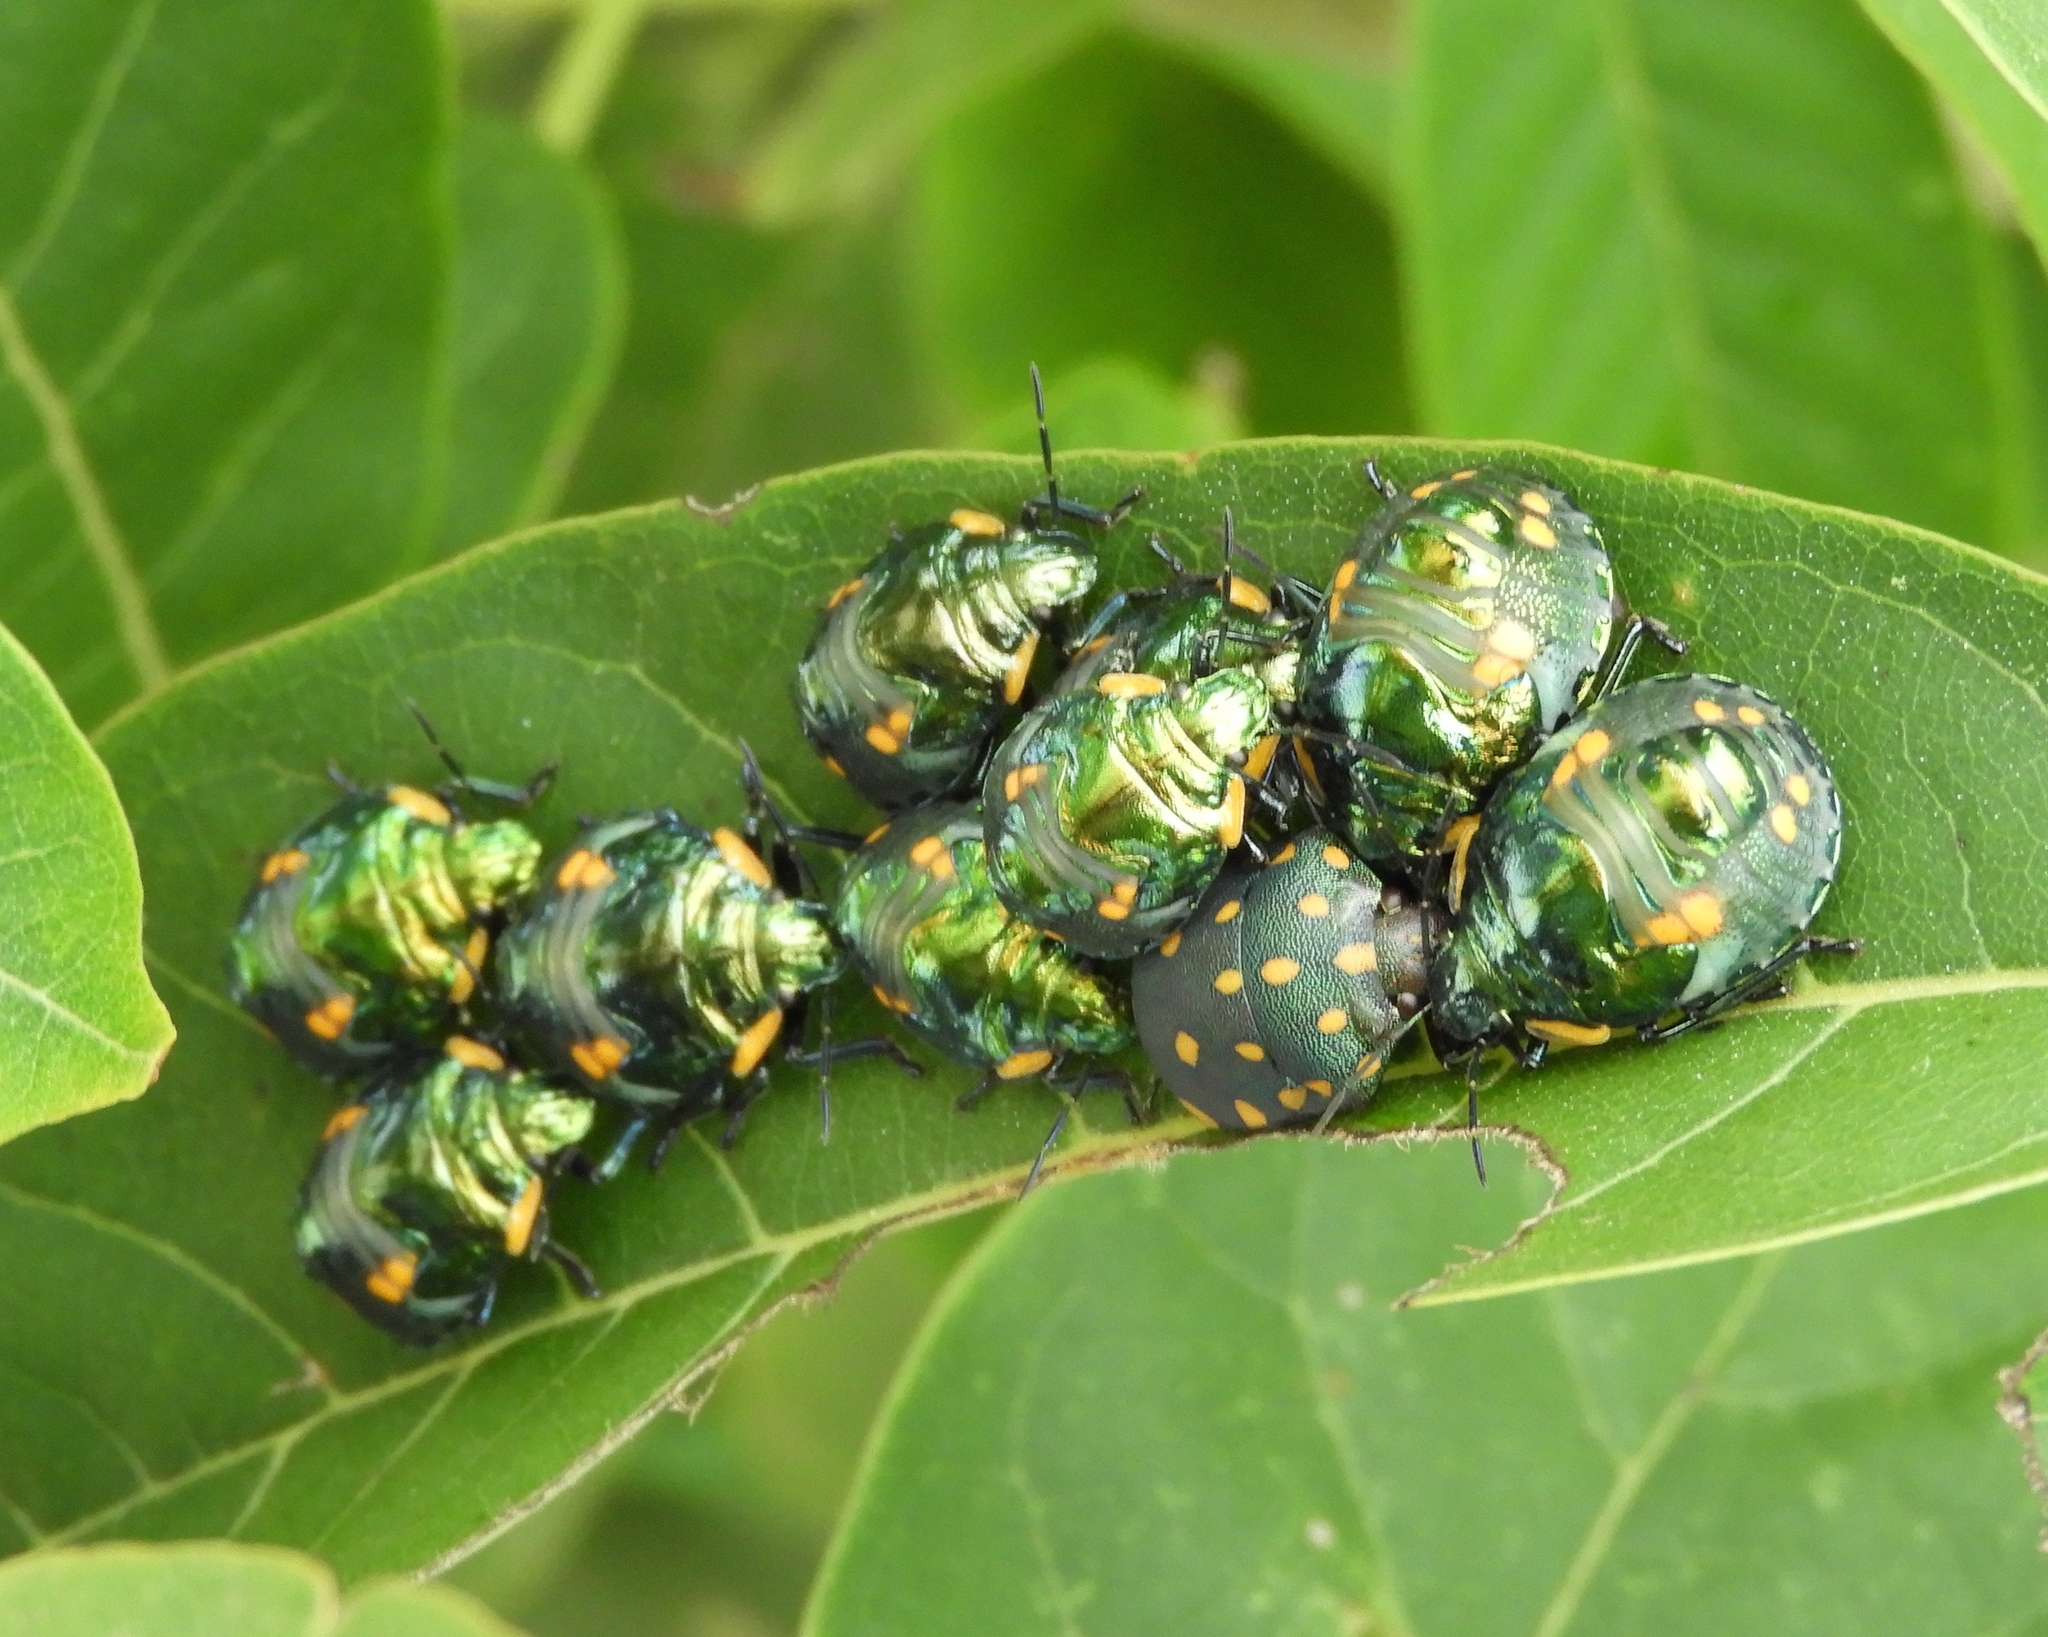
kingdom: Animalia
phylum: Arthropoda
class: Insecta
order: Hemiptera
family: Scutelleridae
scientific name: Scutelleridae
